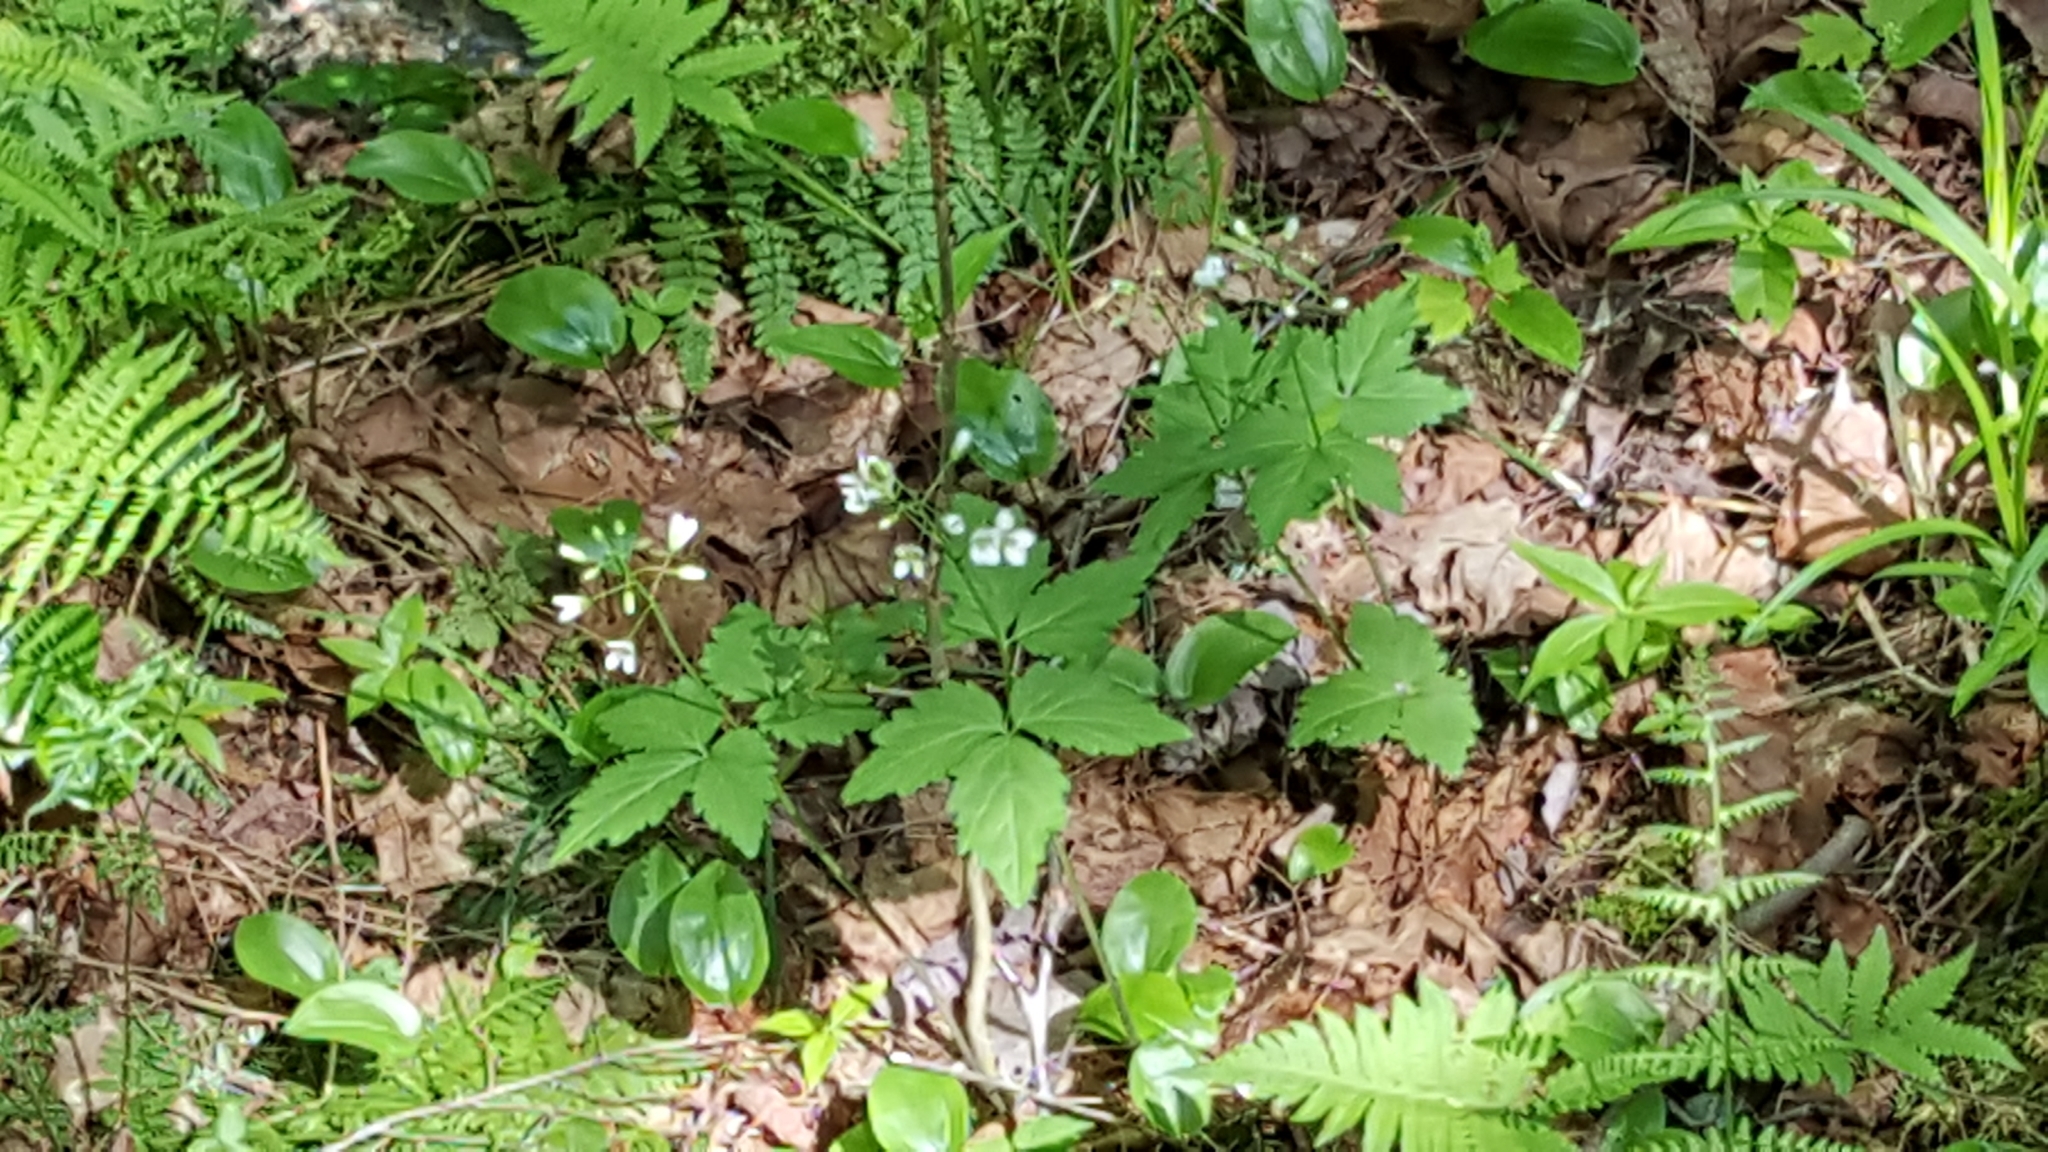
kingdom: Plantae
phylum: Tracheophyta
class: Magnoliopsida
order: Brassicales
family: Brassicaceae
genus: Cardamine
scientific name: Cardamine diphylla
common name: Broad-leaved toothwort
